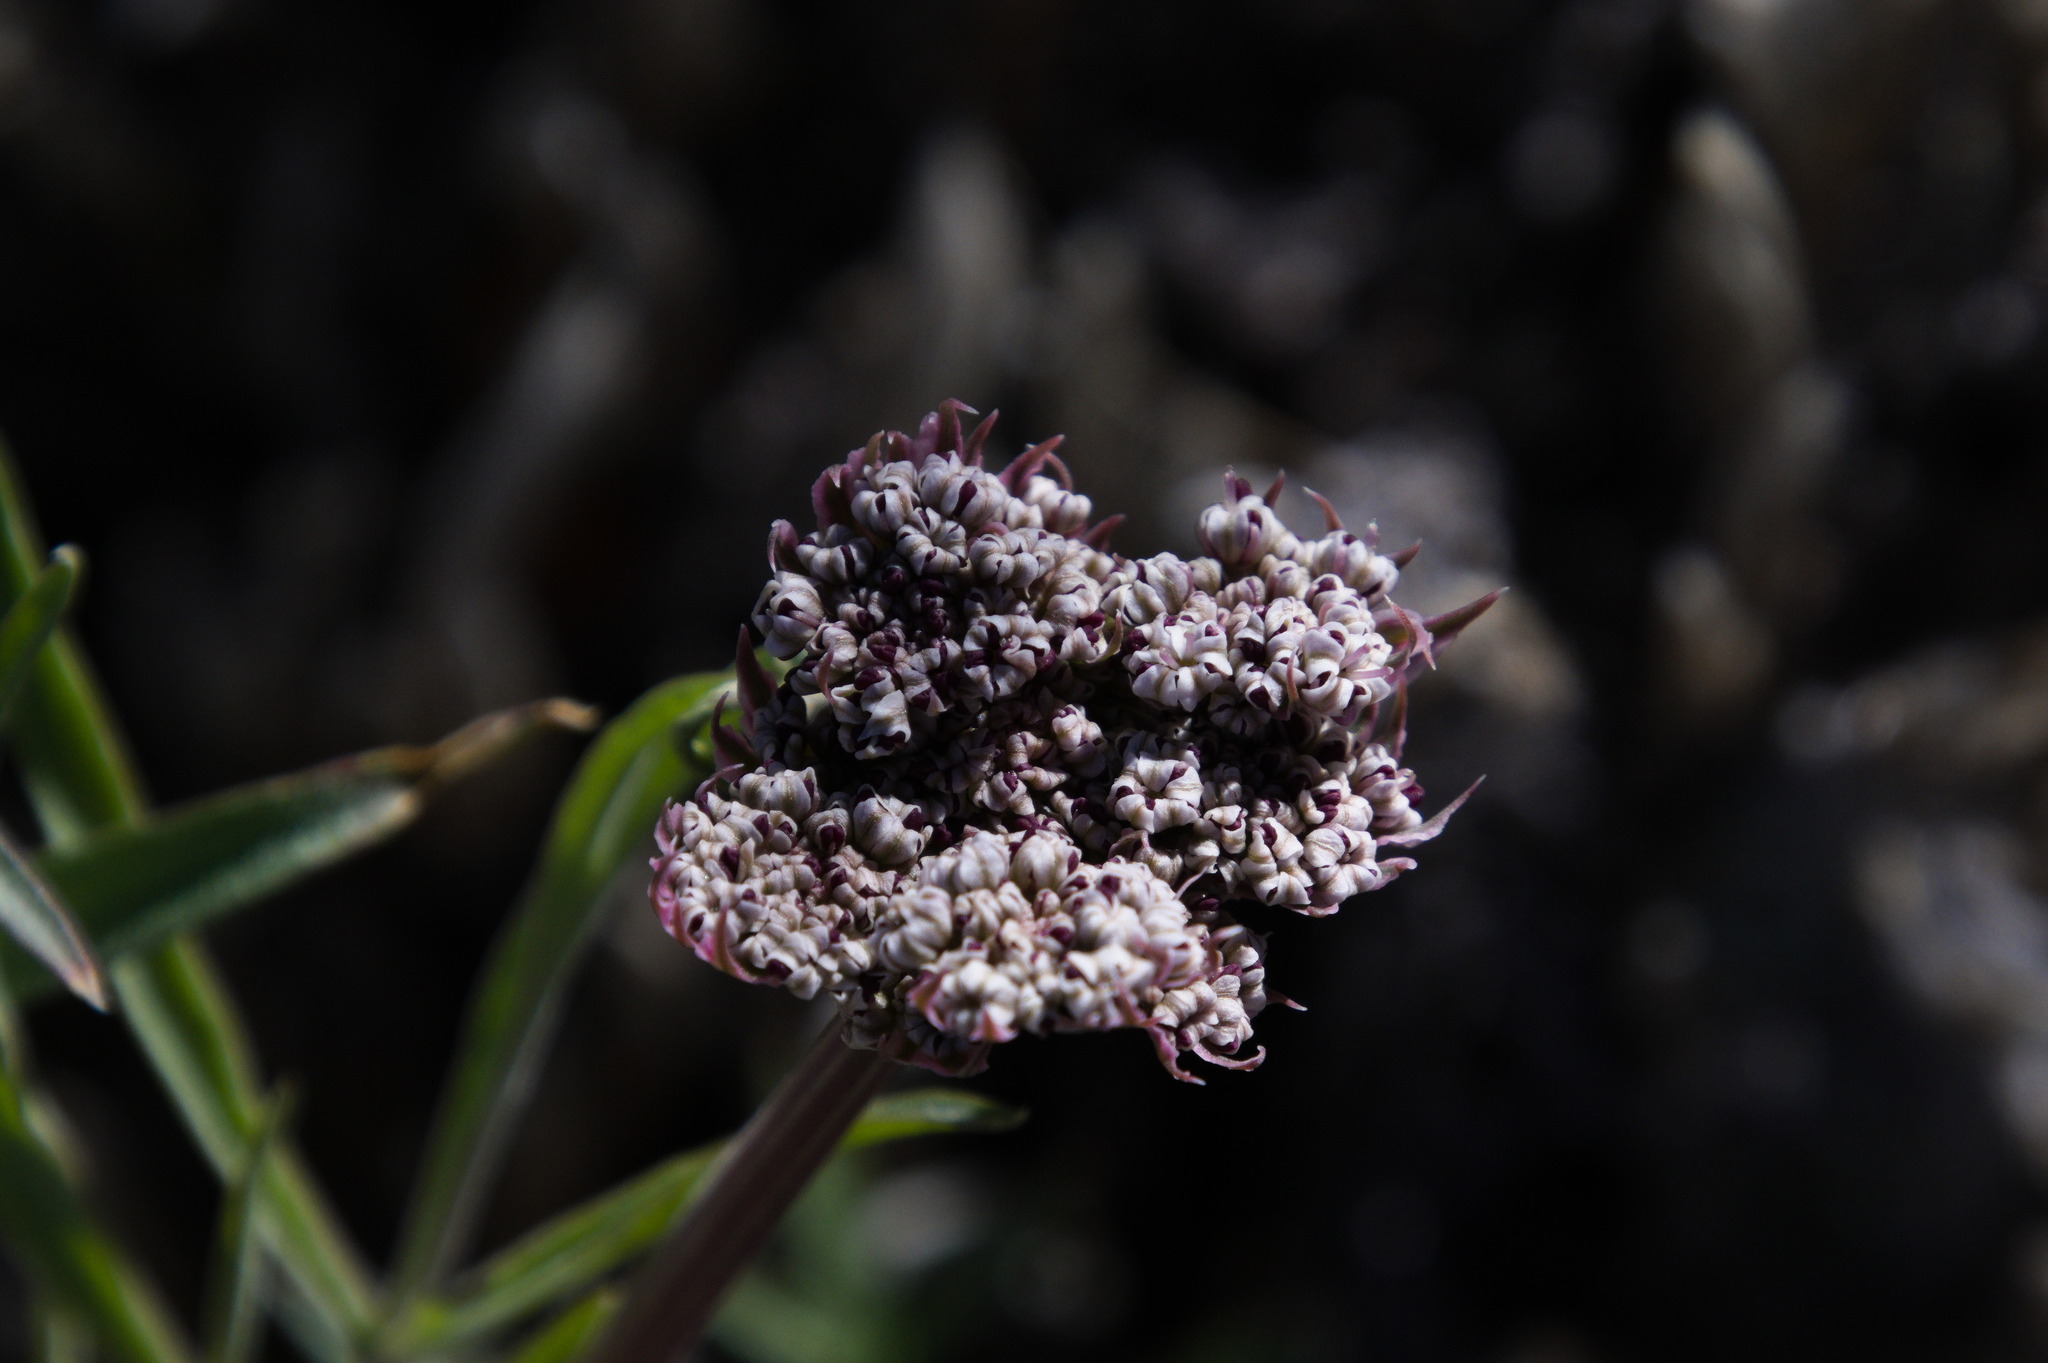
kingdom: Plantae
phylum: Tracheophyta
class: Magnoliopsida
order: Apiales
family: Apiaceae
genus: Lomatium
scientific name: Lomatium nevadense
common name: Nevada lomatium
